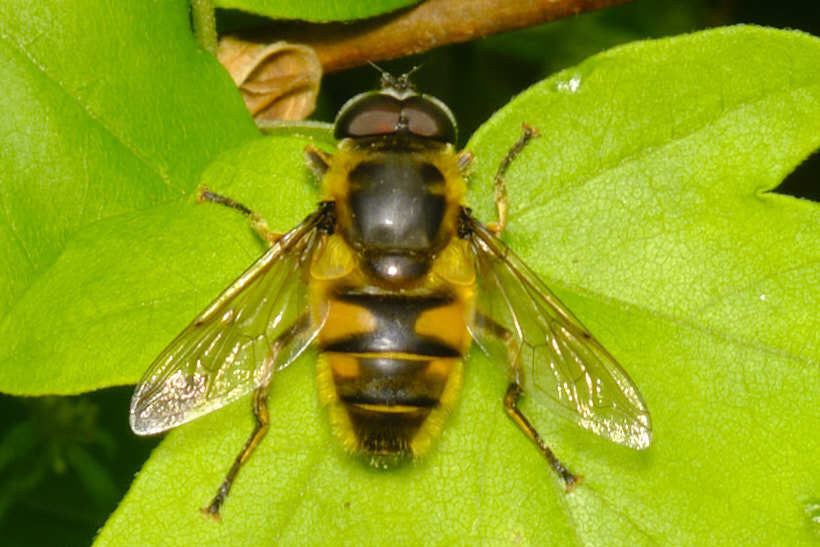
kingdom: Animalia
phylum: Arthropoda
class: Insecta
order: Diptera
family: Syrphidae
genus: Myathropa
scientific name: Myathropa florea
